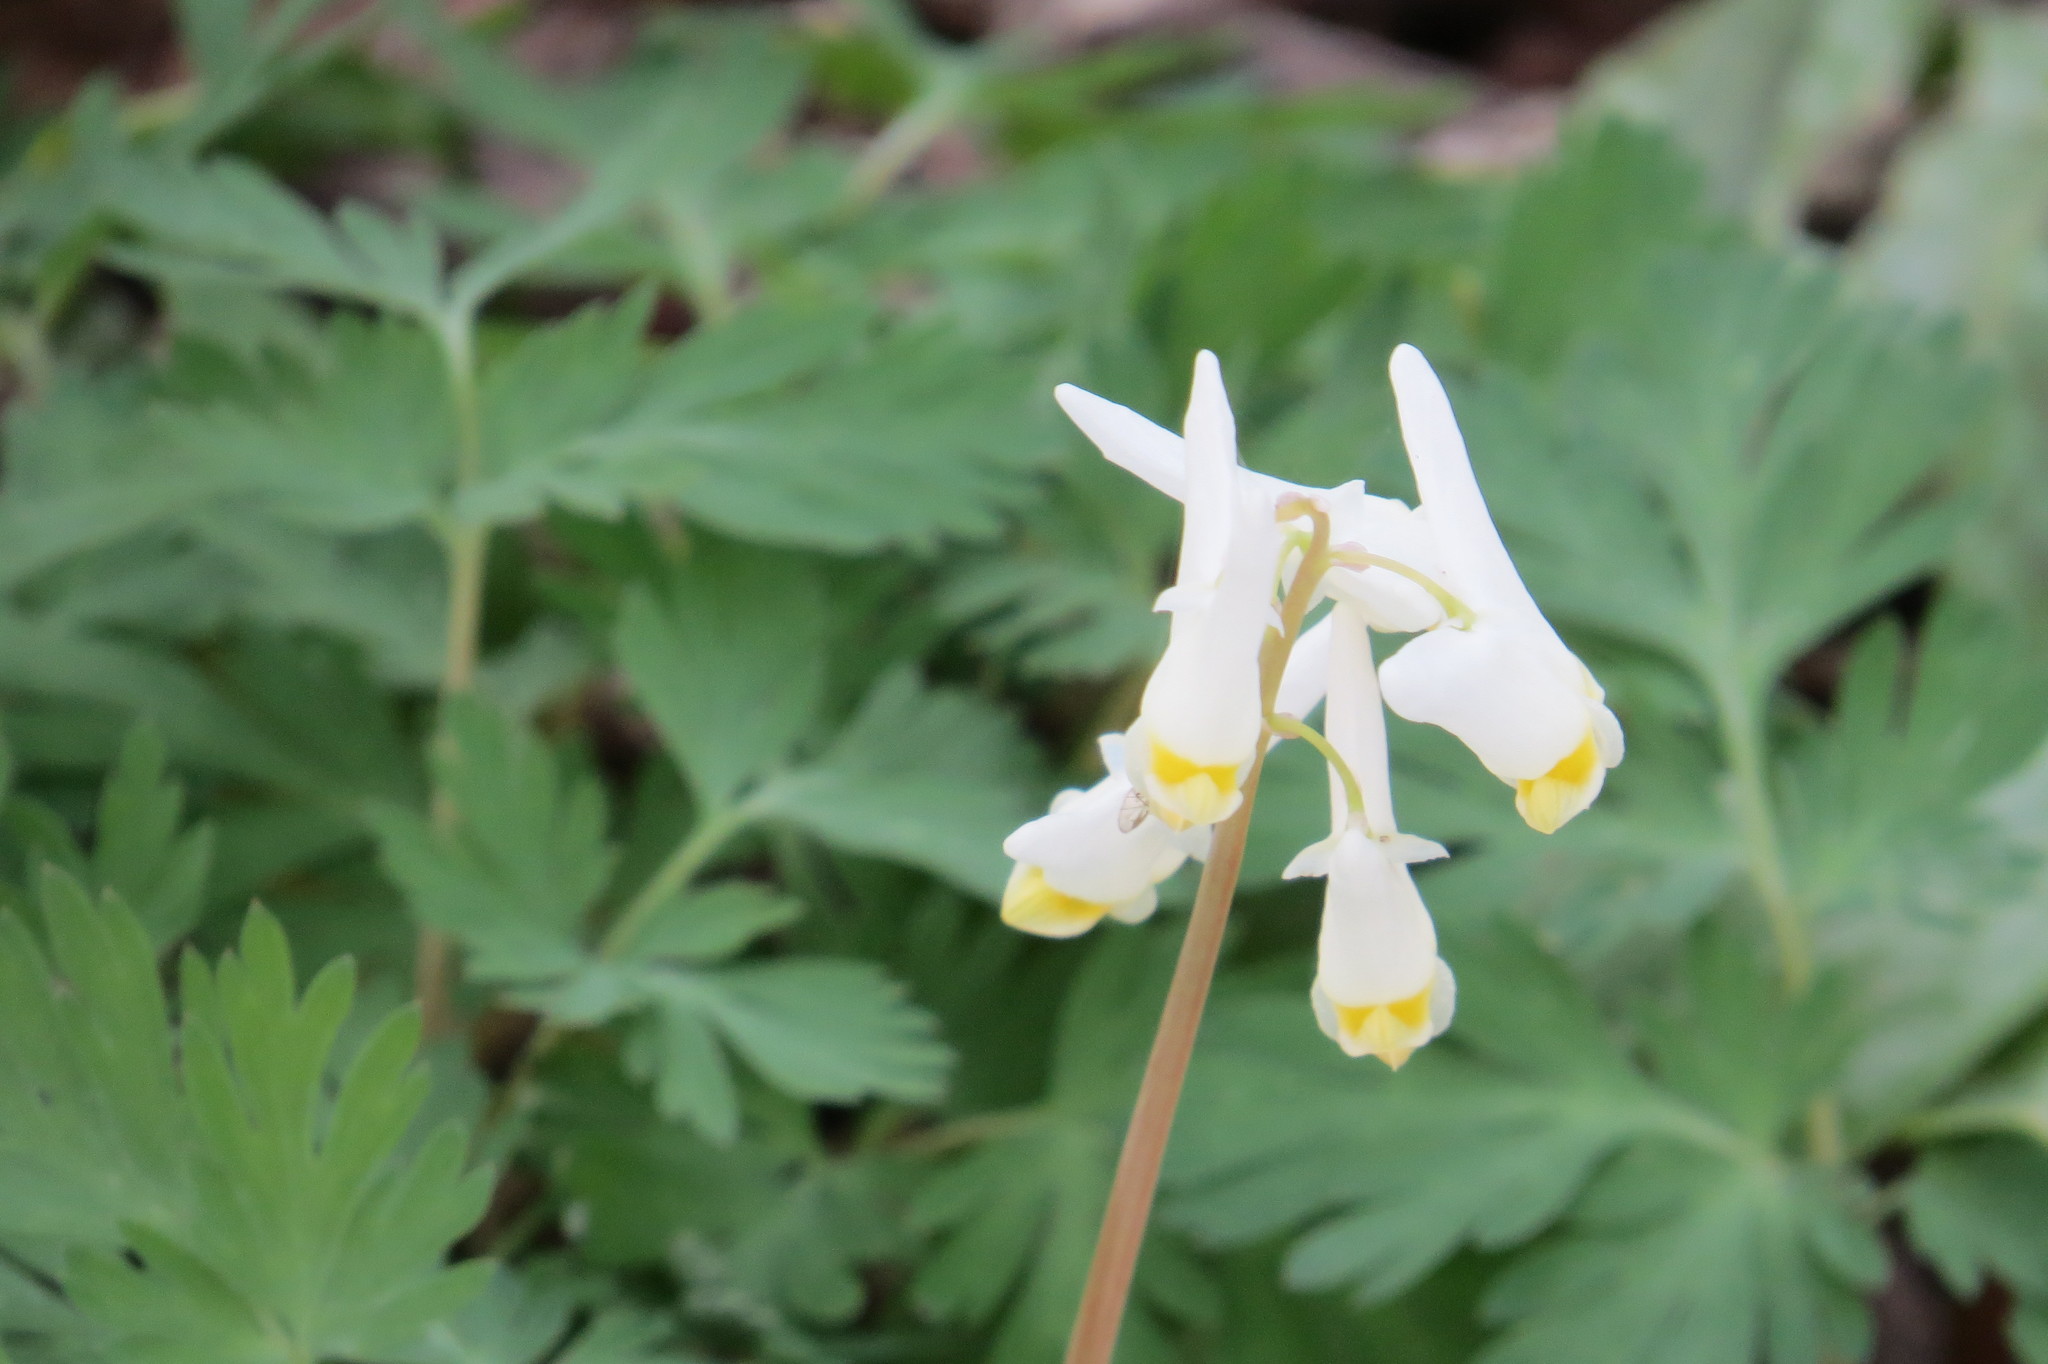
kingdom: Plantae
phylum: Tracheophyta
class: Magnoliopsida
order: Ranunculales
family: Papaveraceae
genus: Dicentra
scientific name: Dicentra cucullaria
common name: Dutchman's breeches
